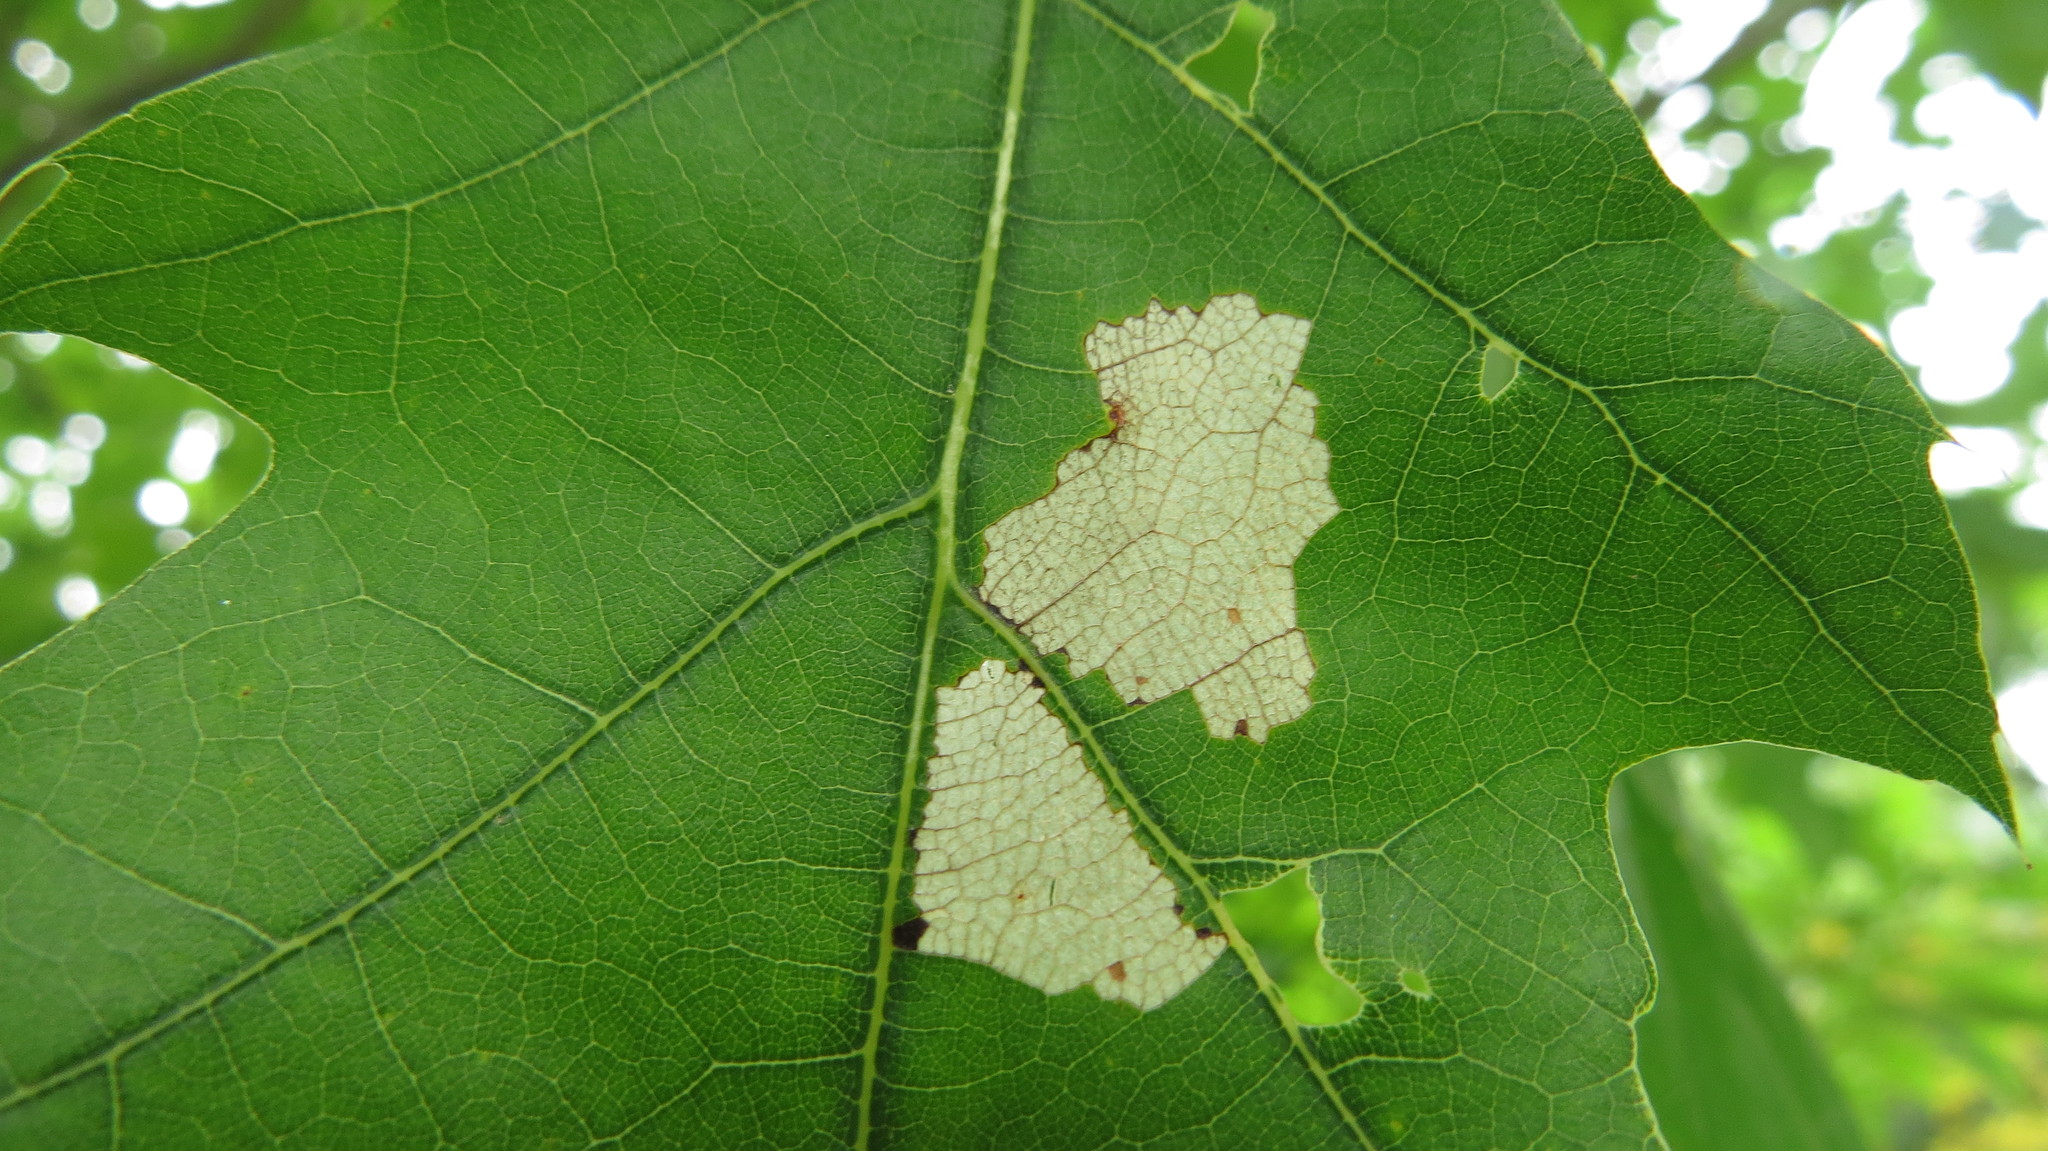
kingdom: Animalia
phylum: Arthropoda
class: Insecta
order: Lepidoptera
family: Bucculatricidae
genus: Bucculatrix
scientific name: Bucculatrix ainsliella
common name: Oak skeletonizer
